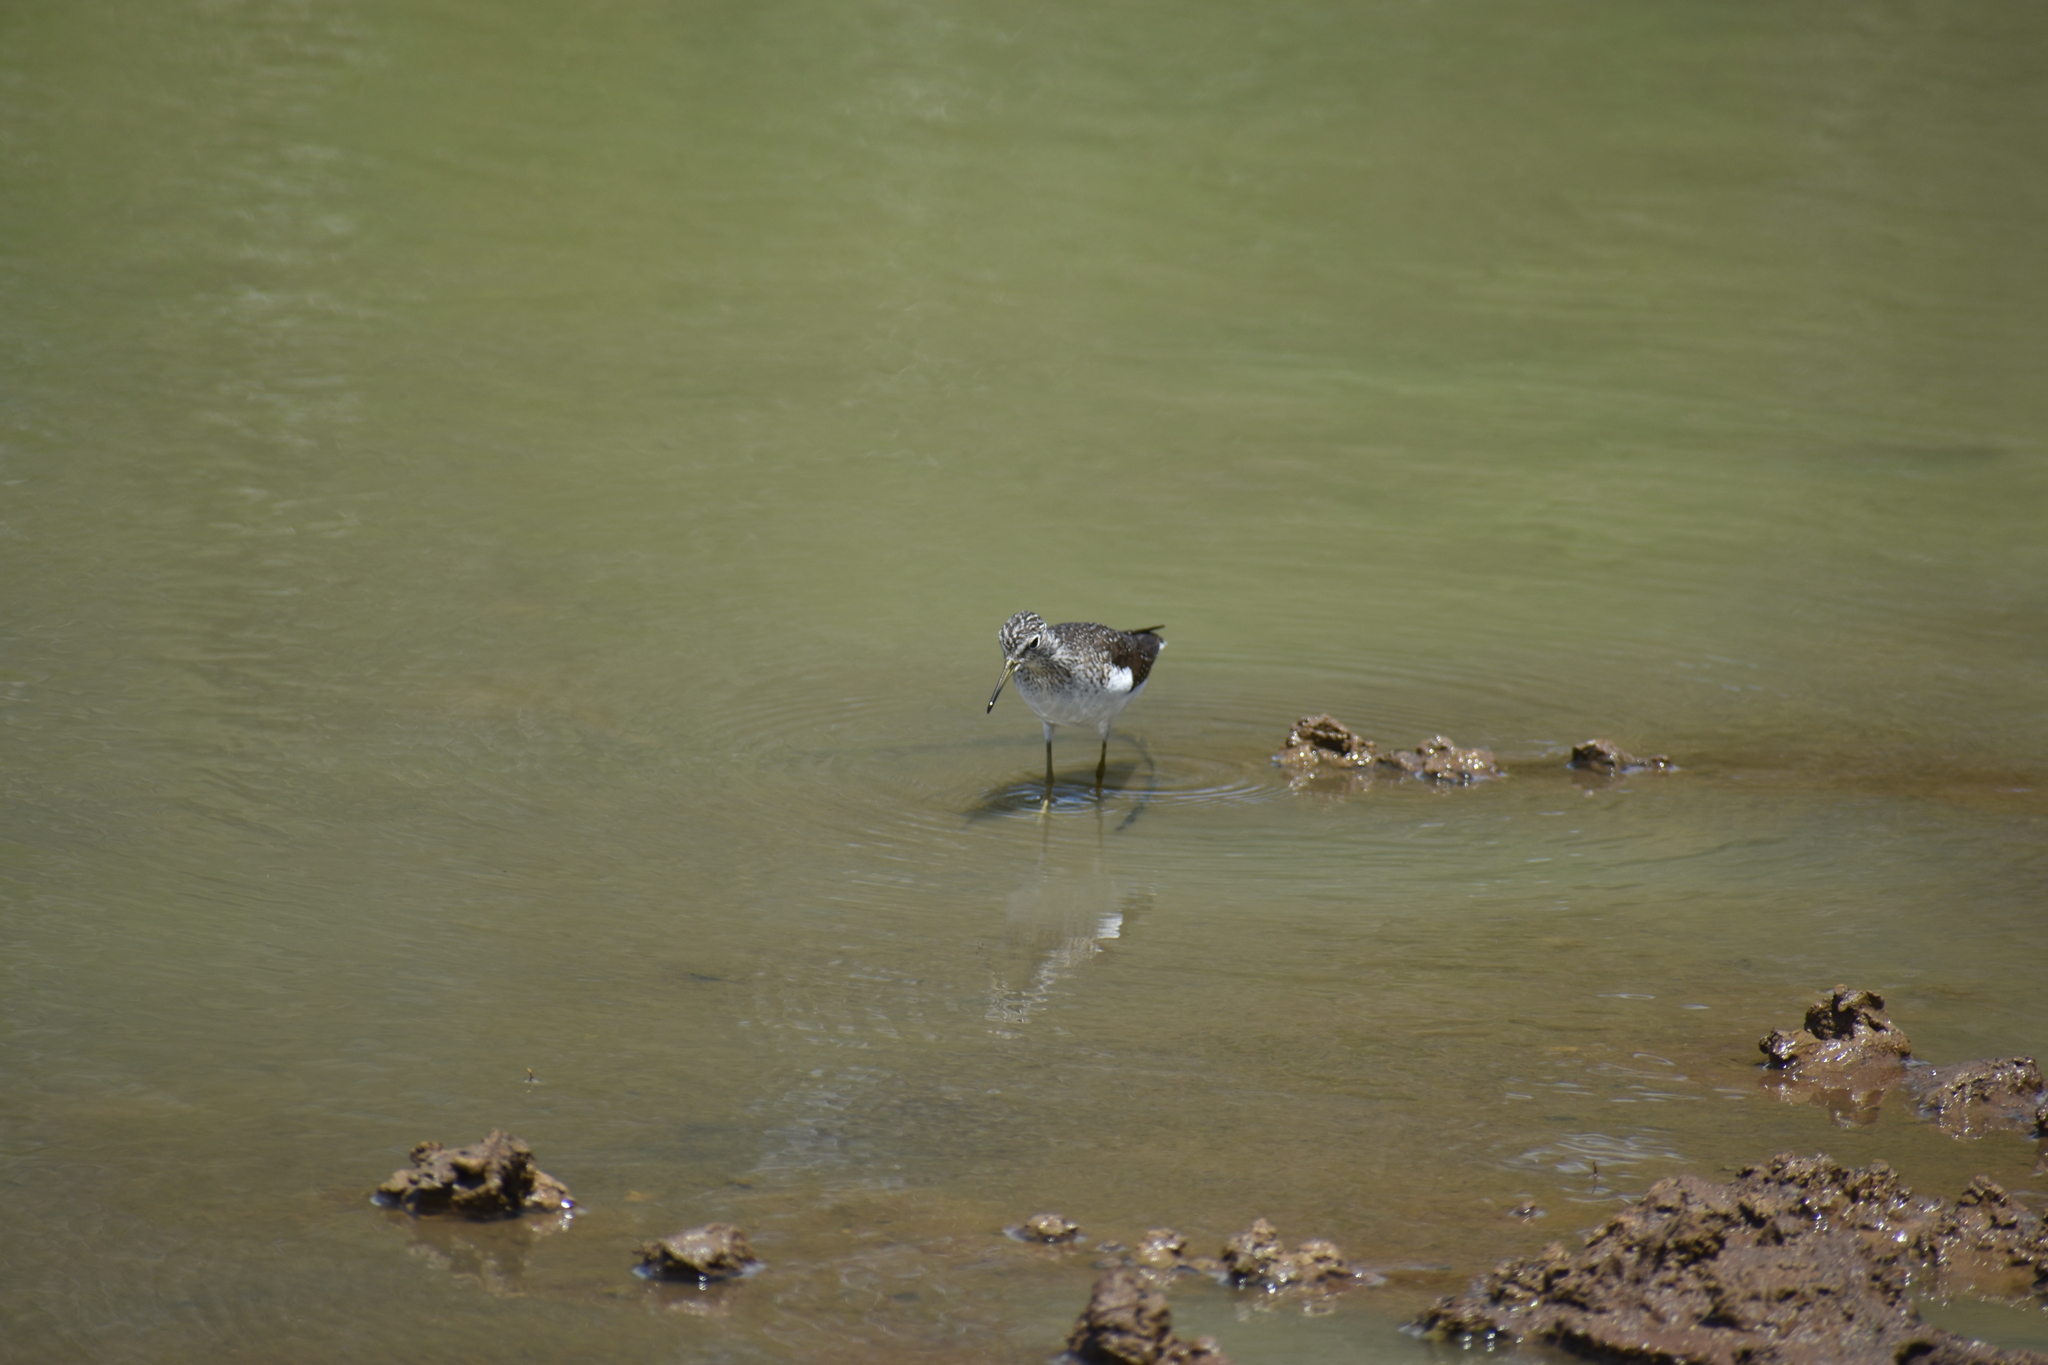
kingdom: Animalia
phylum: Chordata
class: Aves
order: Charadriiformes
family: Scolopacidae
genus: Tringa
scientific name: Tringa solitaria
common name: Solitary sandpiper
